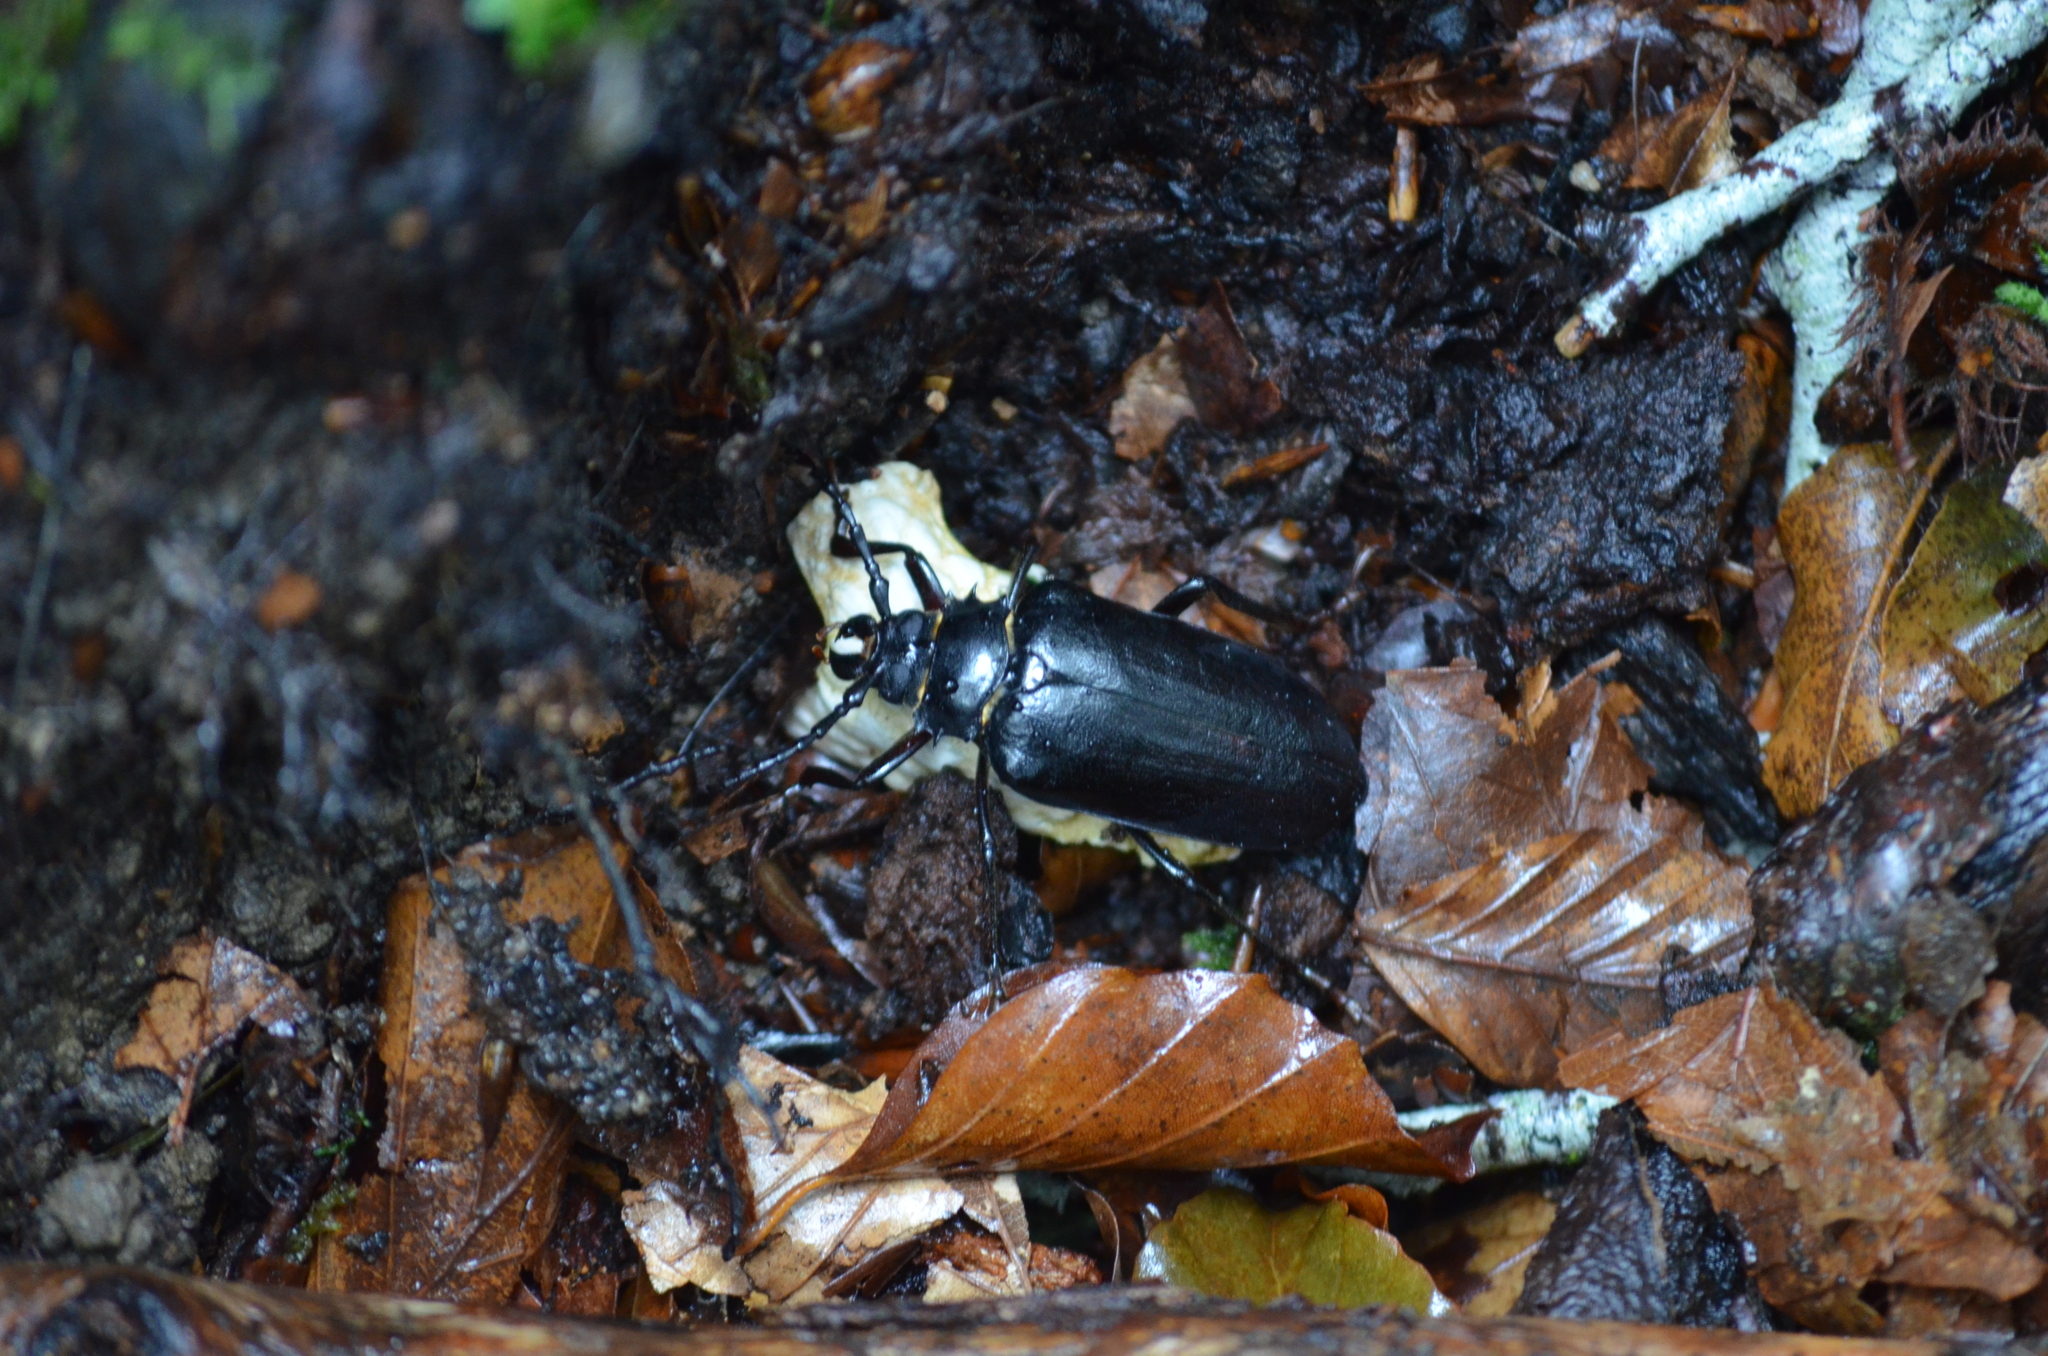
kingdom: Animalia
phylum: Arthropoda
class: Insecta
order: Coleoptera
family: Cerambycidae
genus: Prionus
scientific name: Prionus coriarius
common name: Tanner beetle
